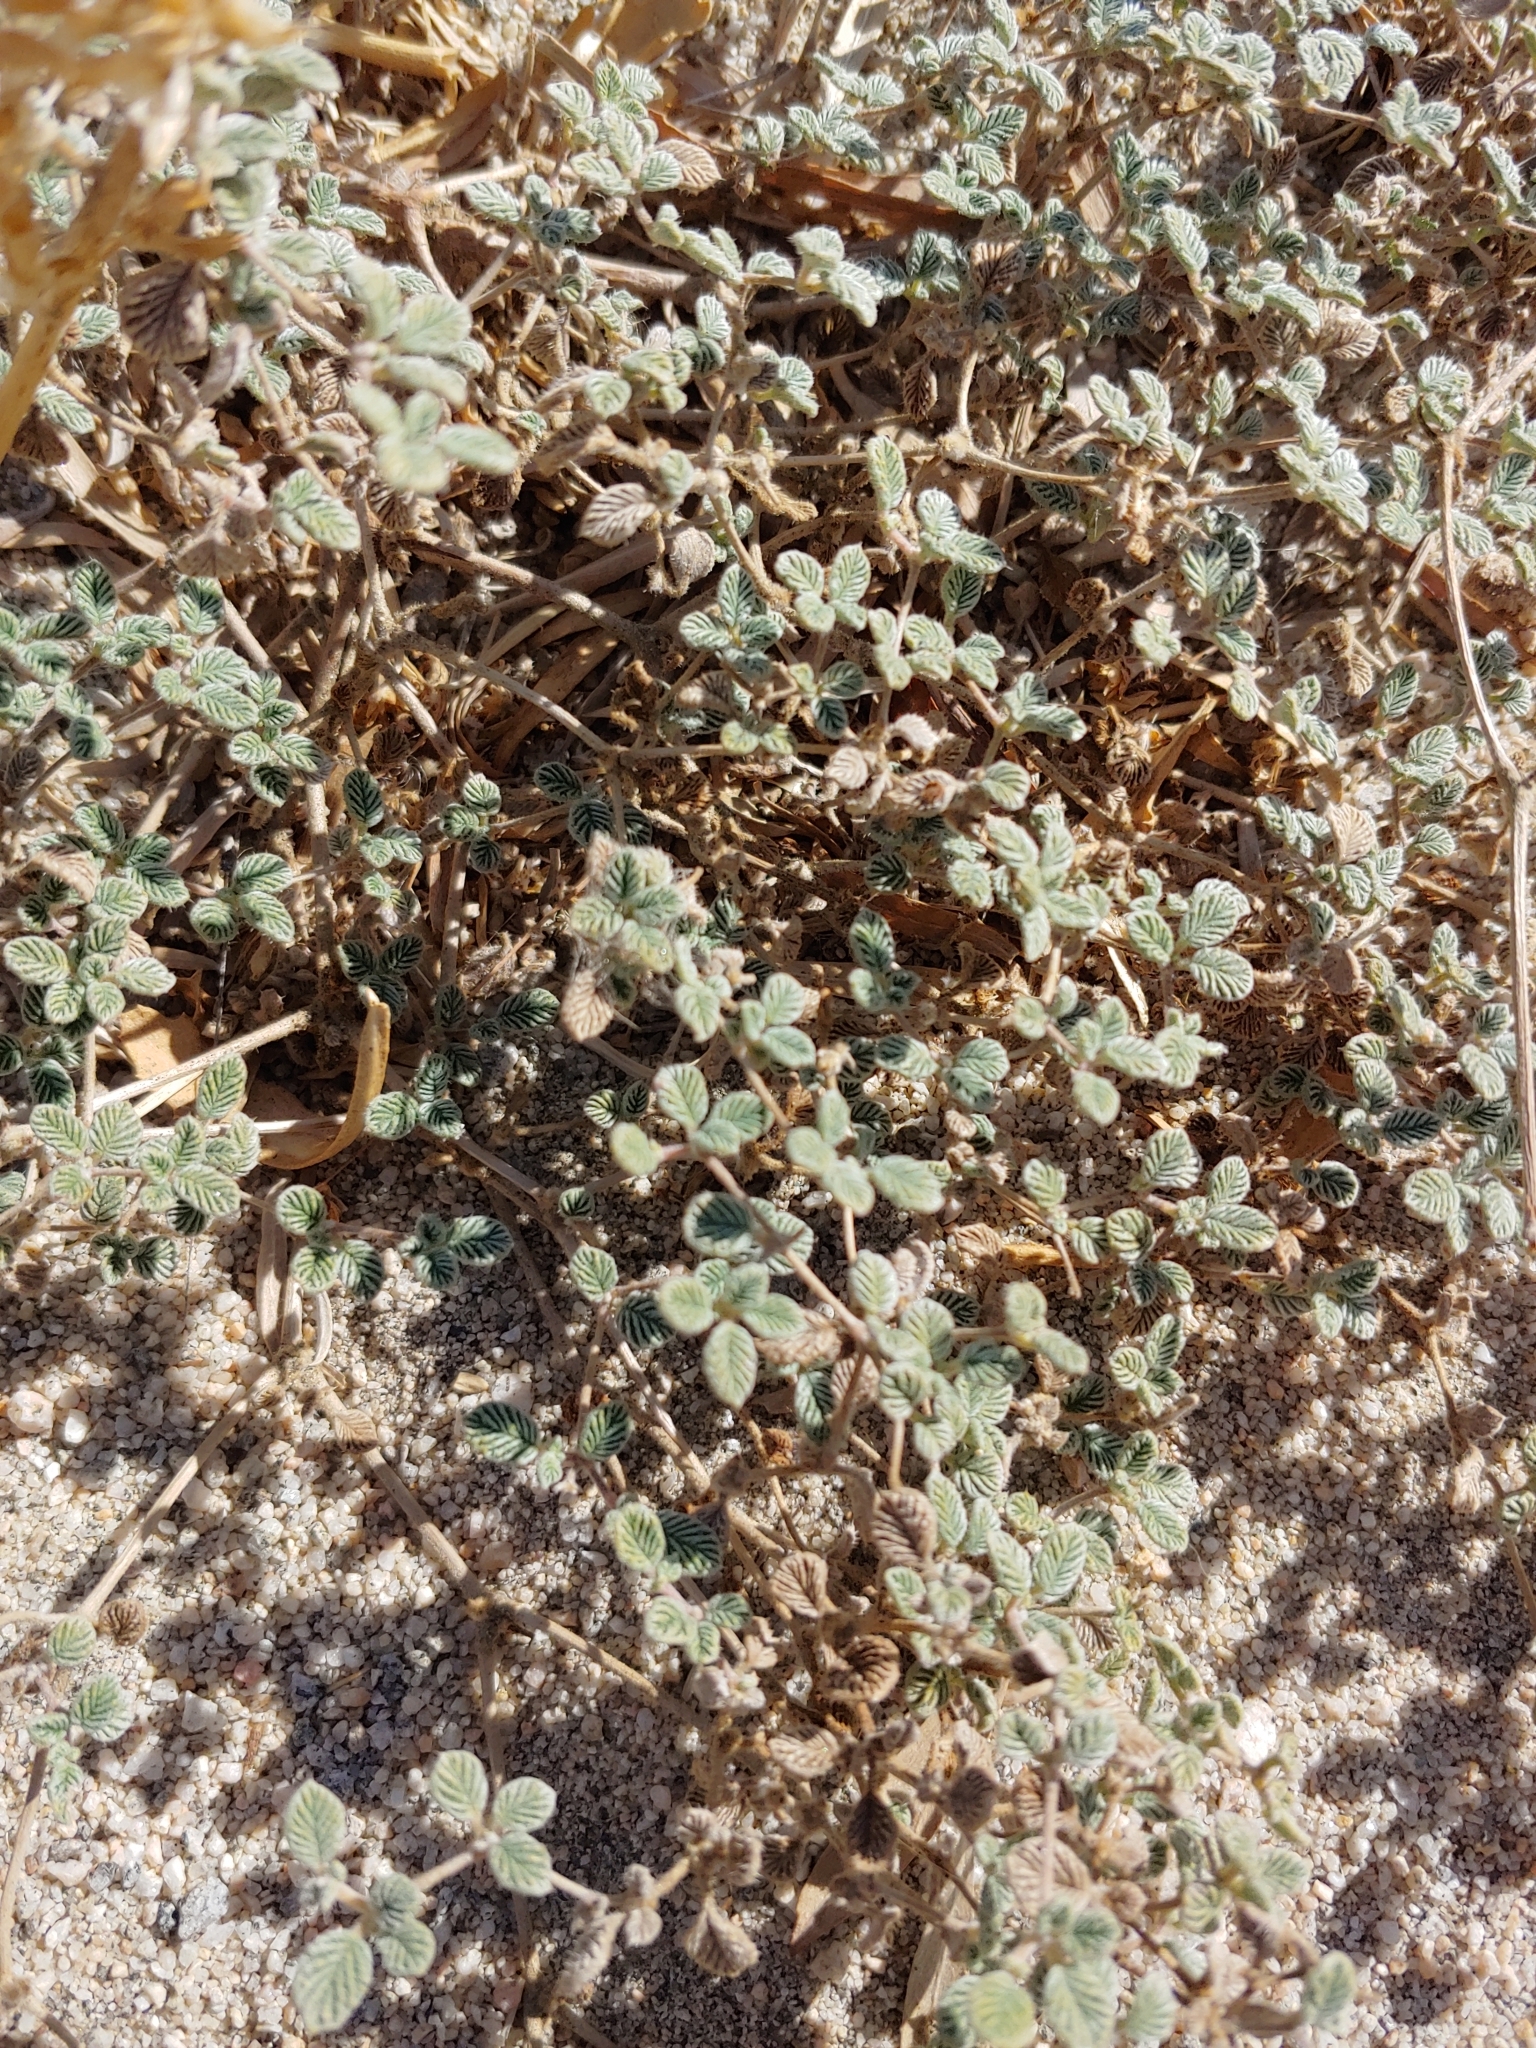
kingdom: Plantae
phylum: Tracheophyta
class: Magnoliopsida
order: Boraginales
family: Ehretiaceae
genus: Tiquilia
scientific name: Tiquilia plicata
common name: Fan-leaf tiquilia
